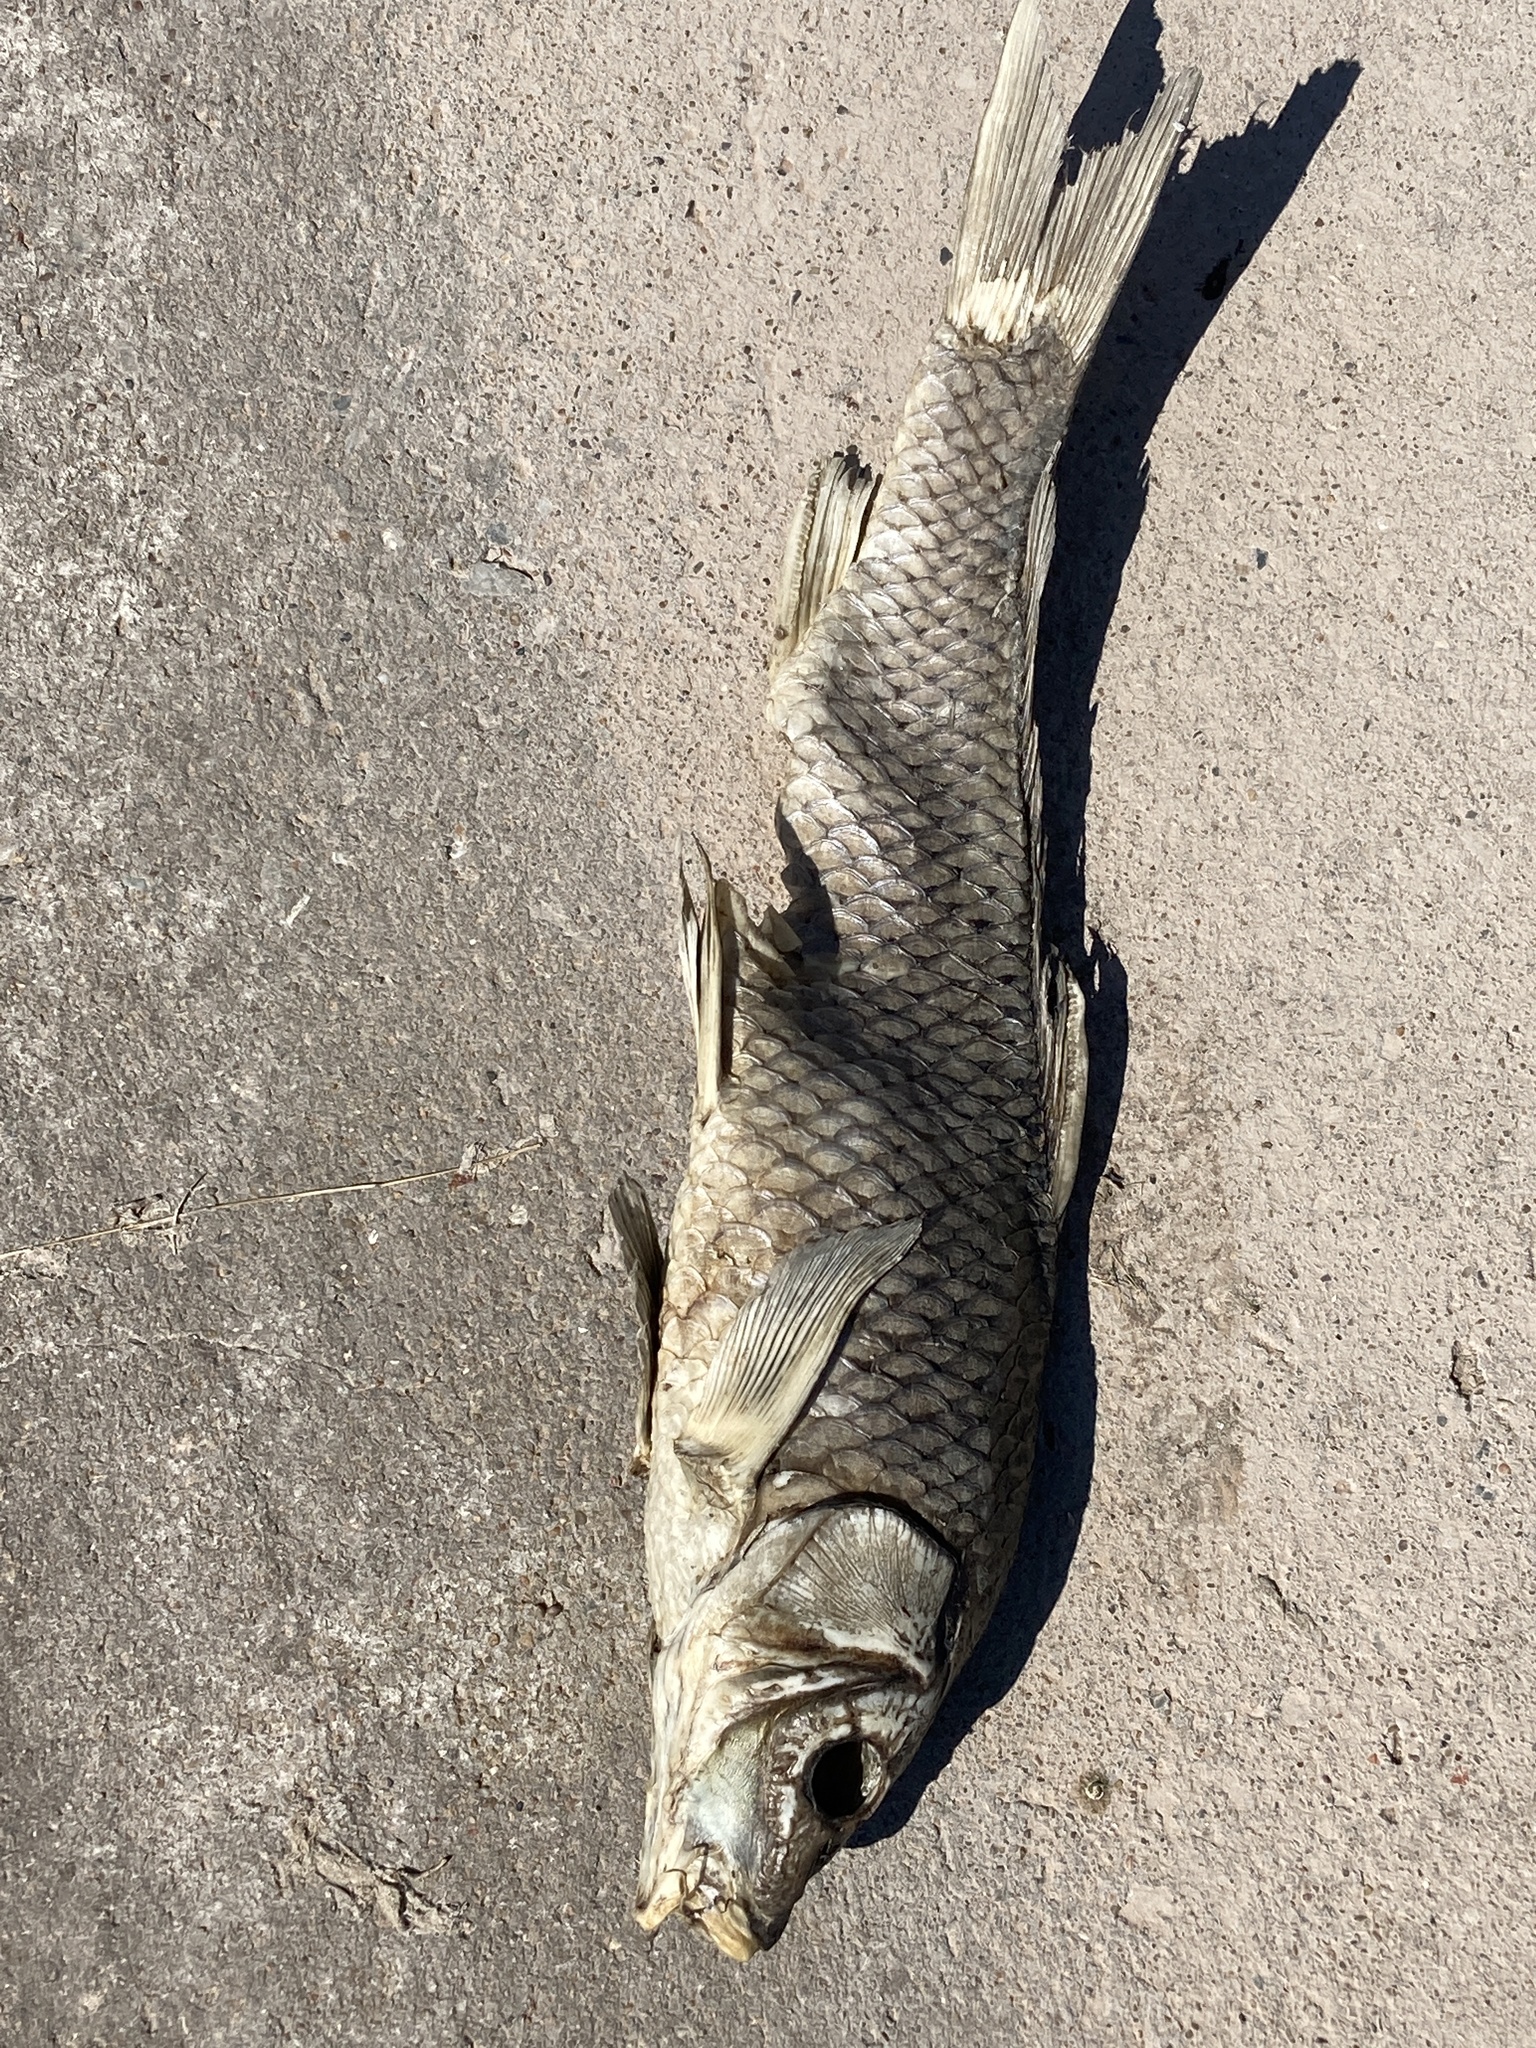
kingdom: Animalia
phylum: Chordata
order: Cypriniformes
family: Cyprinidae
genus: Cyprinus
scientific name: Cyprinus carpio
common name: Common carp
